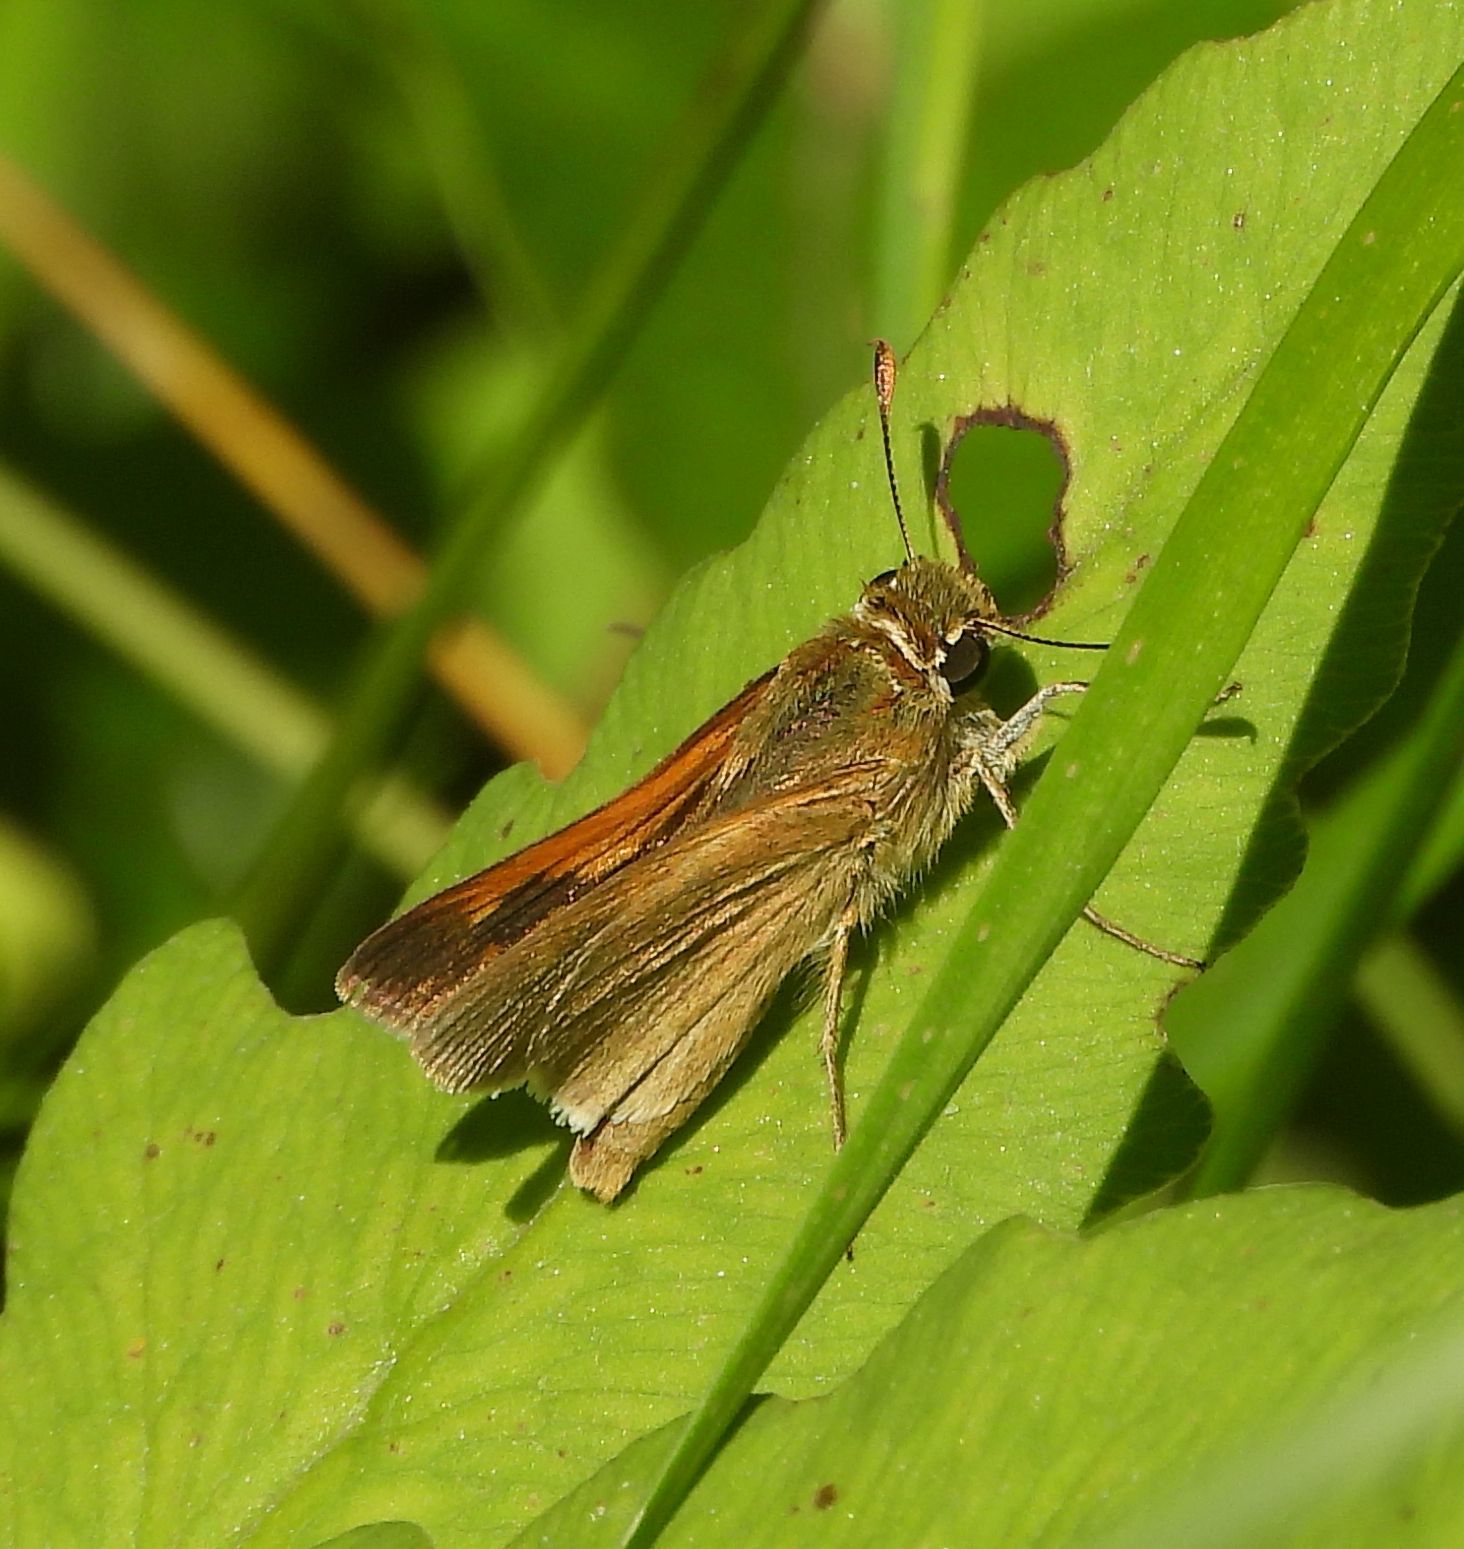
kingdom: Animalia
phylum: Arthropoda
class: Insecta
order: Lepidoptera
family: Hesperiidae
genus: Polites
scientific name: Polites origenes
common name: Crossline skipper
